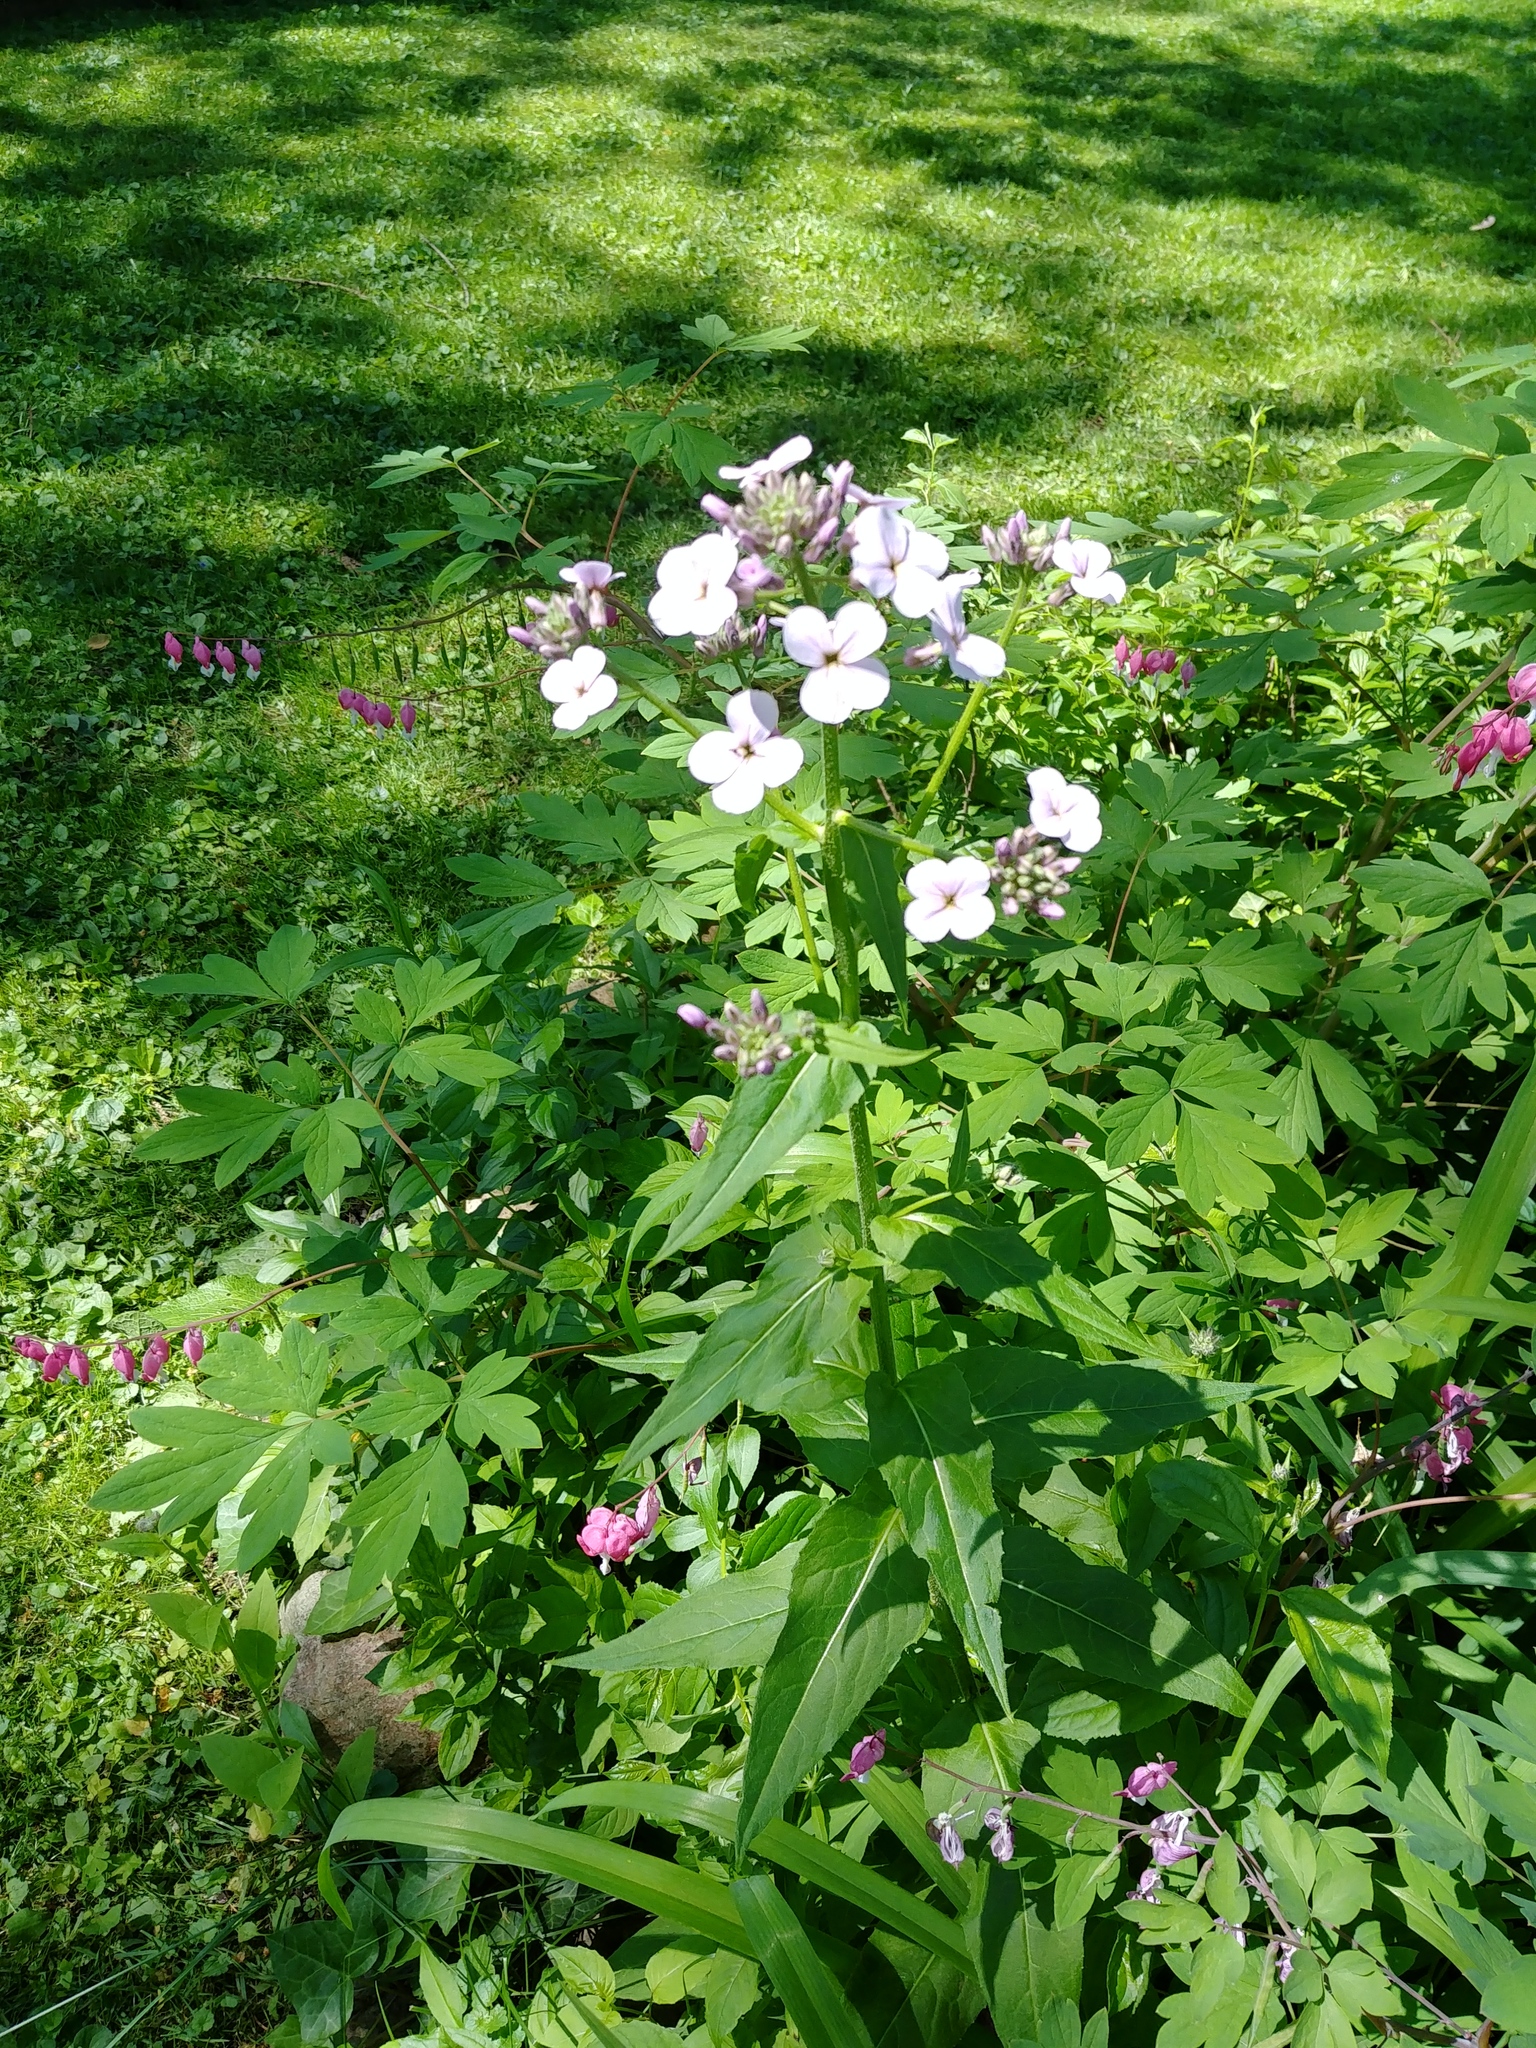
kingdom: Plantae
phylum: Tracheophyta
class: Magnoliopsida
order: Brassicales
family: Brassicaceae
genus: Hesperis
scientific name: Hesperis matronalis
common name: Dame's-violet
